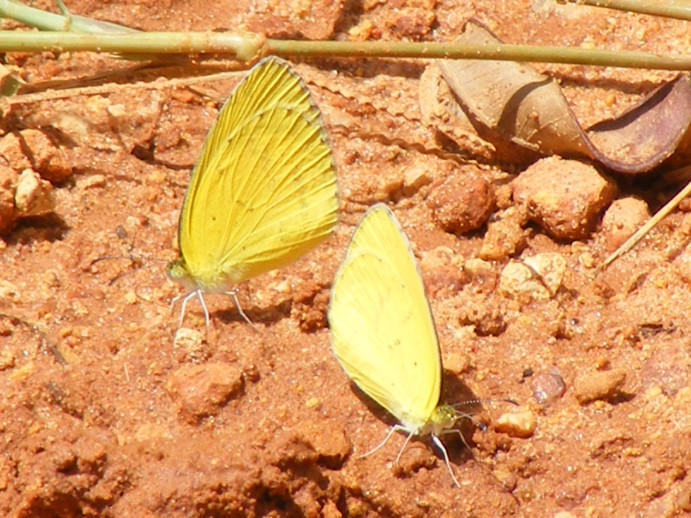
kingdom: Animalia
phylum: Arthropoda
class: Insecta
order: Lepidoptera
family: Pieridae
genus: Eurema
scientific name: Eurema brigitta
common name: Small grass yellow
